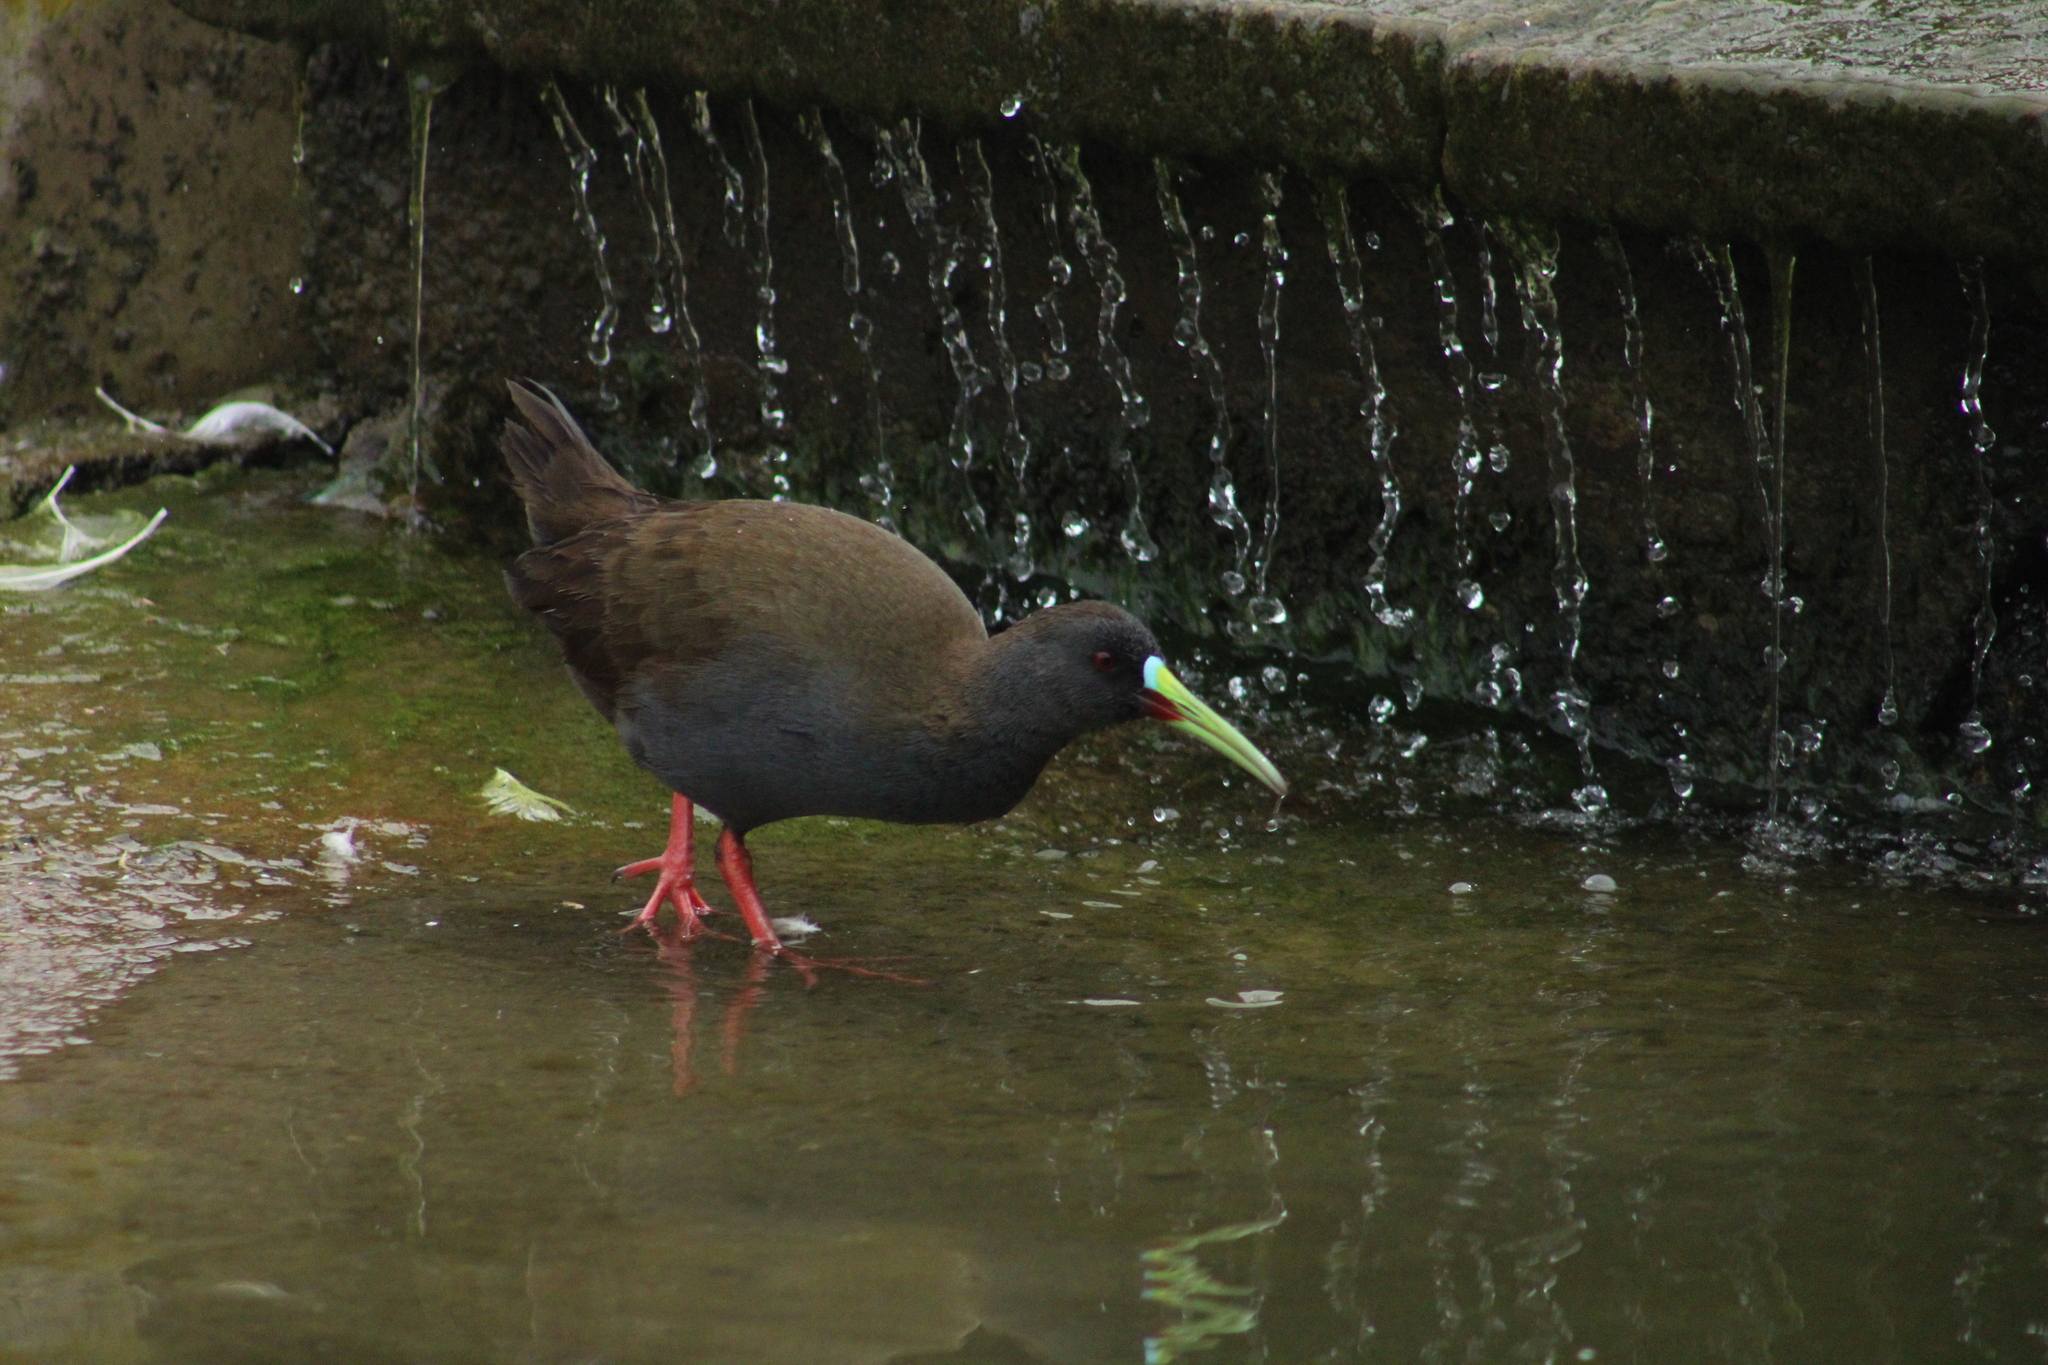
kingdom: Animalia
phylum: Chordata
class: Aves
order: Gruiformes
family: Rallidae
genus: Pardirallus
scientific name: Pardirallus sanguinolentus
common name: Plumbeous rail
